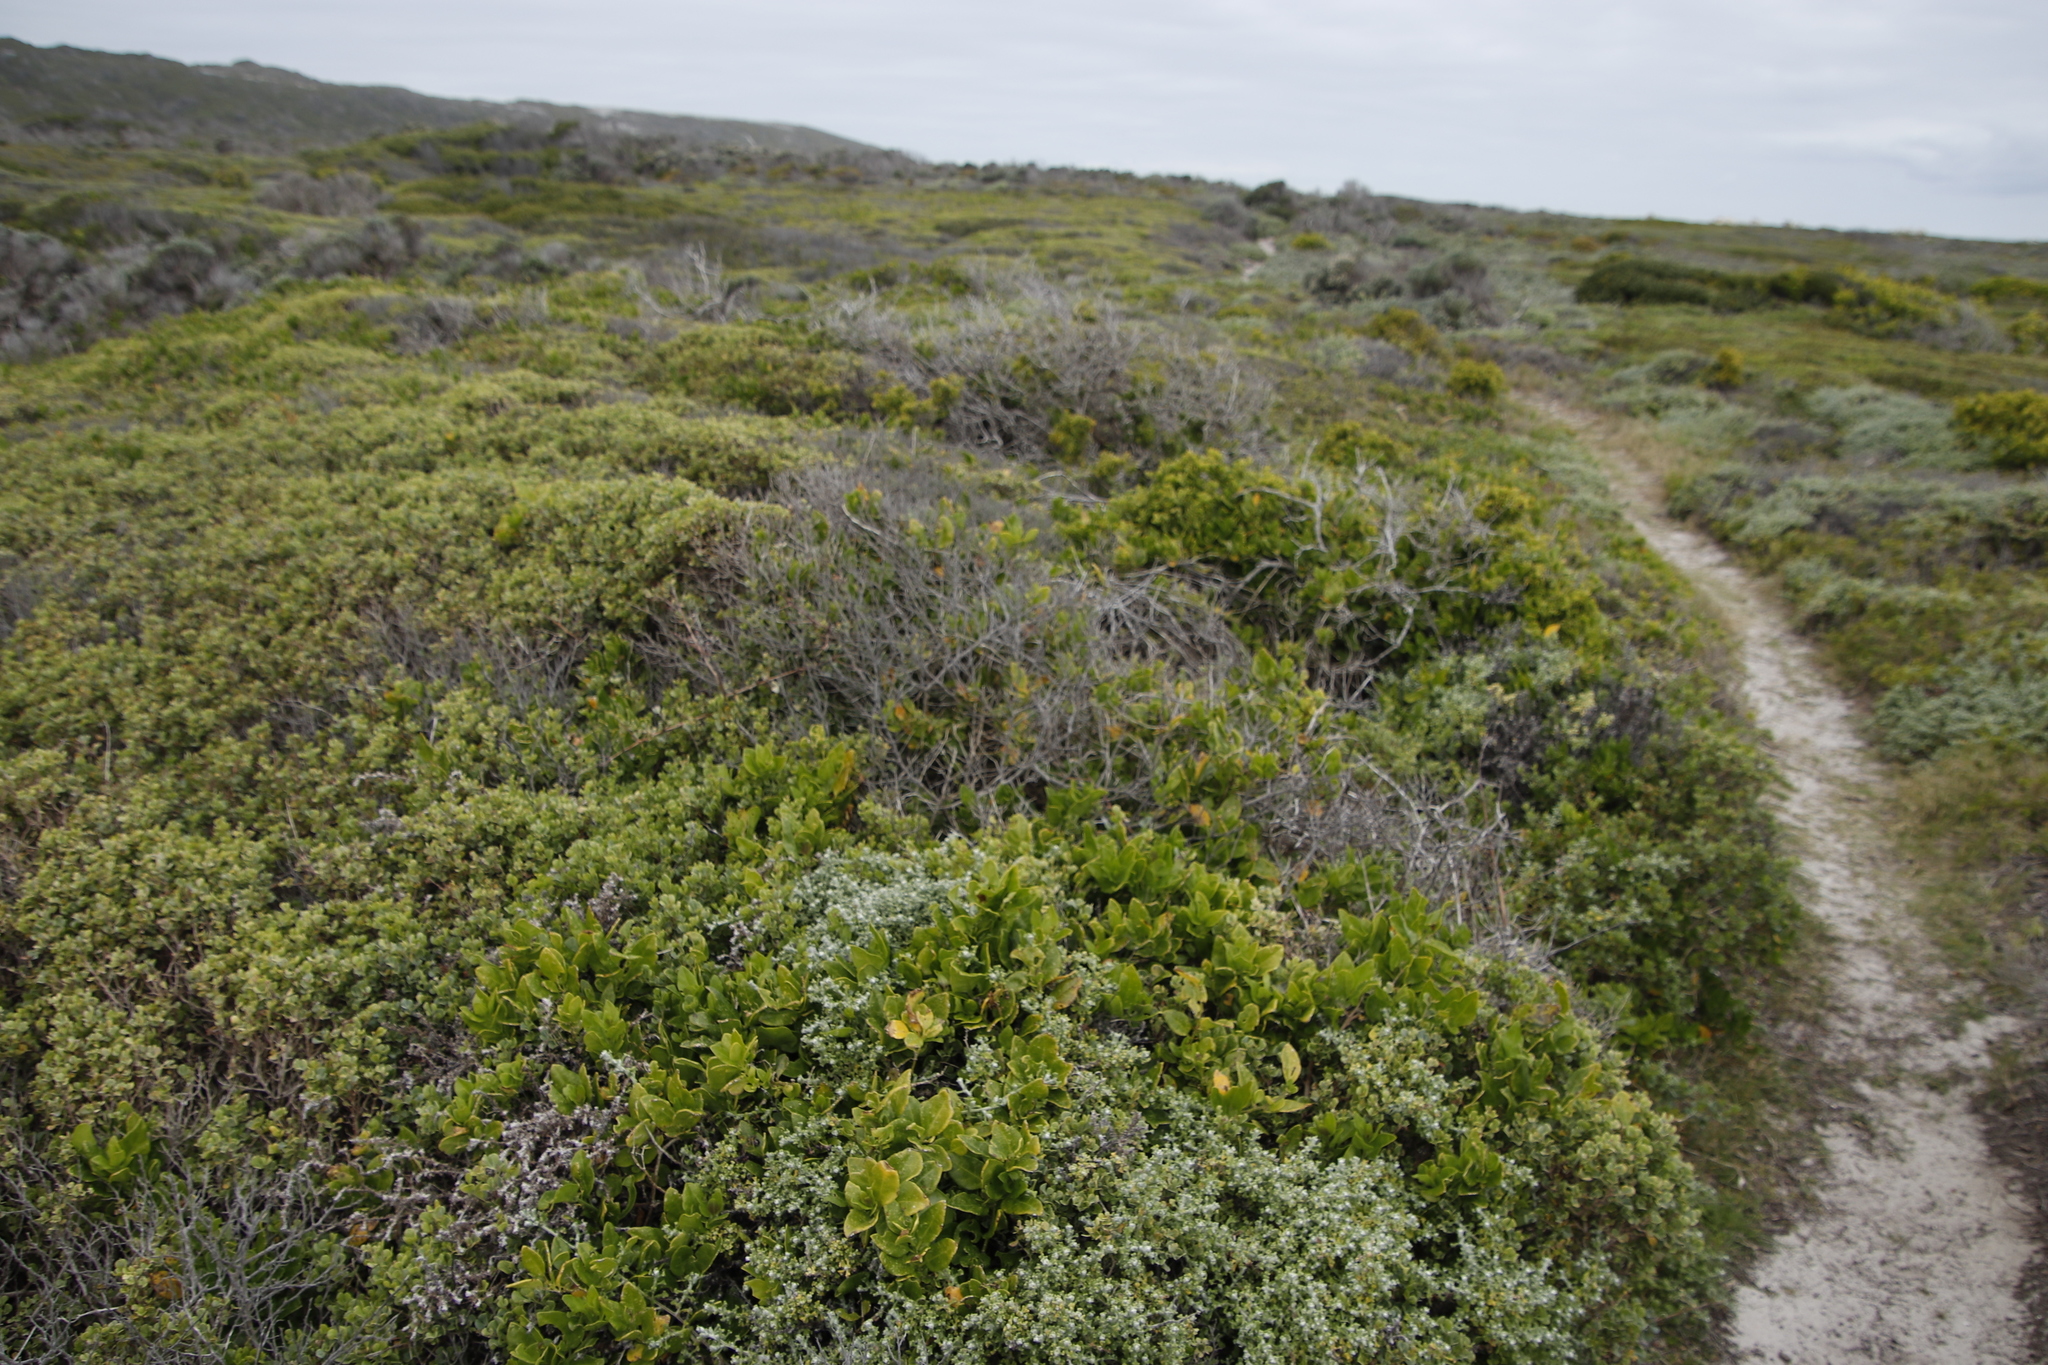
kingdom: Plantae
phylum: Tracheophyta
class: Magnoliopsida
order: Solanales
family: Solanaceae
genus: Solanum
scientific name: Solanum africanum
